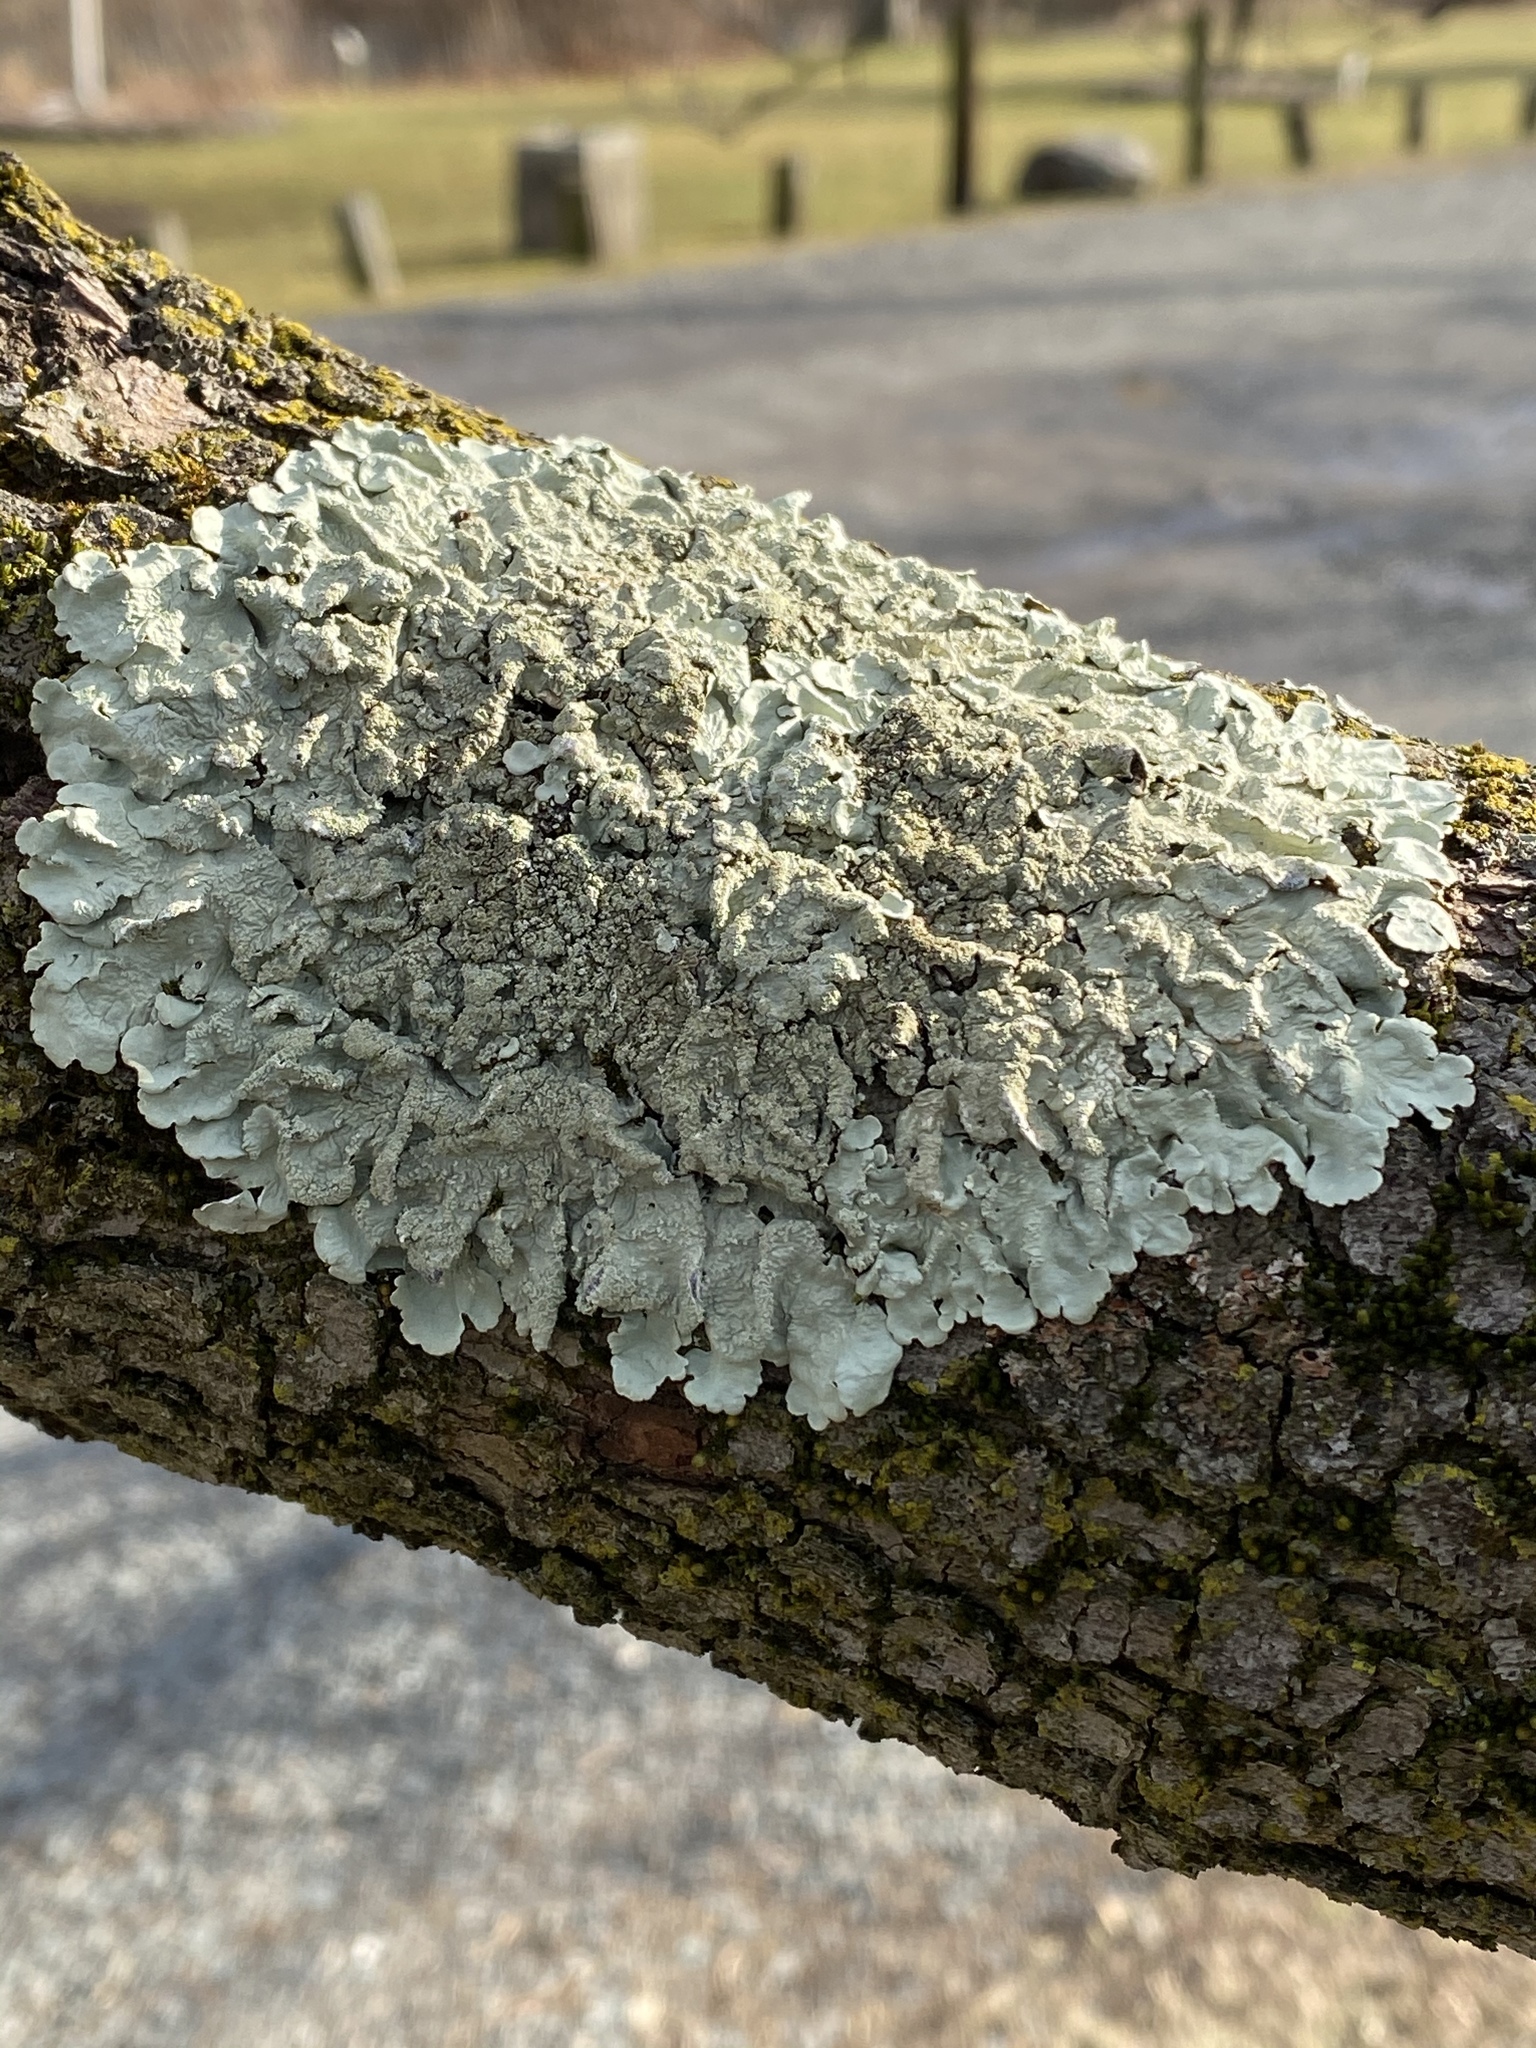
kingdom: Fungi
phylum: Ascomycota
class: Lecanoromycetes
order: Lecanorales
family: Parmeliaceae
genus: Flavoparmelia
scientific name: Flavoparmelia caperata
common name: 40-mile per hour lichen
